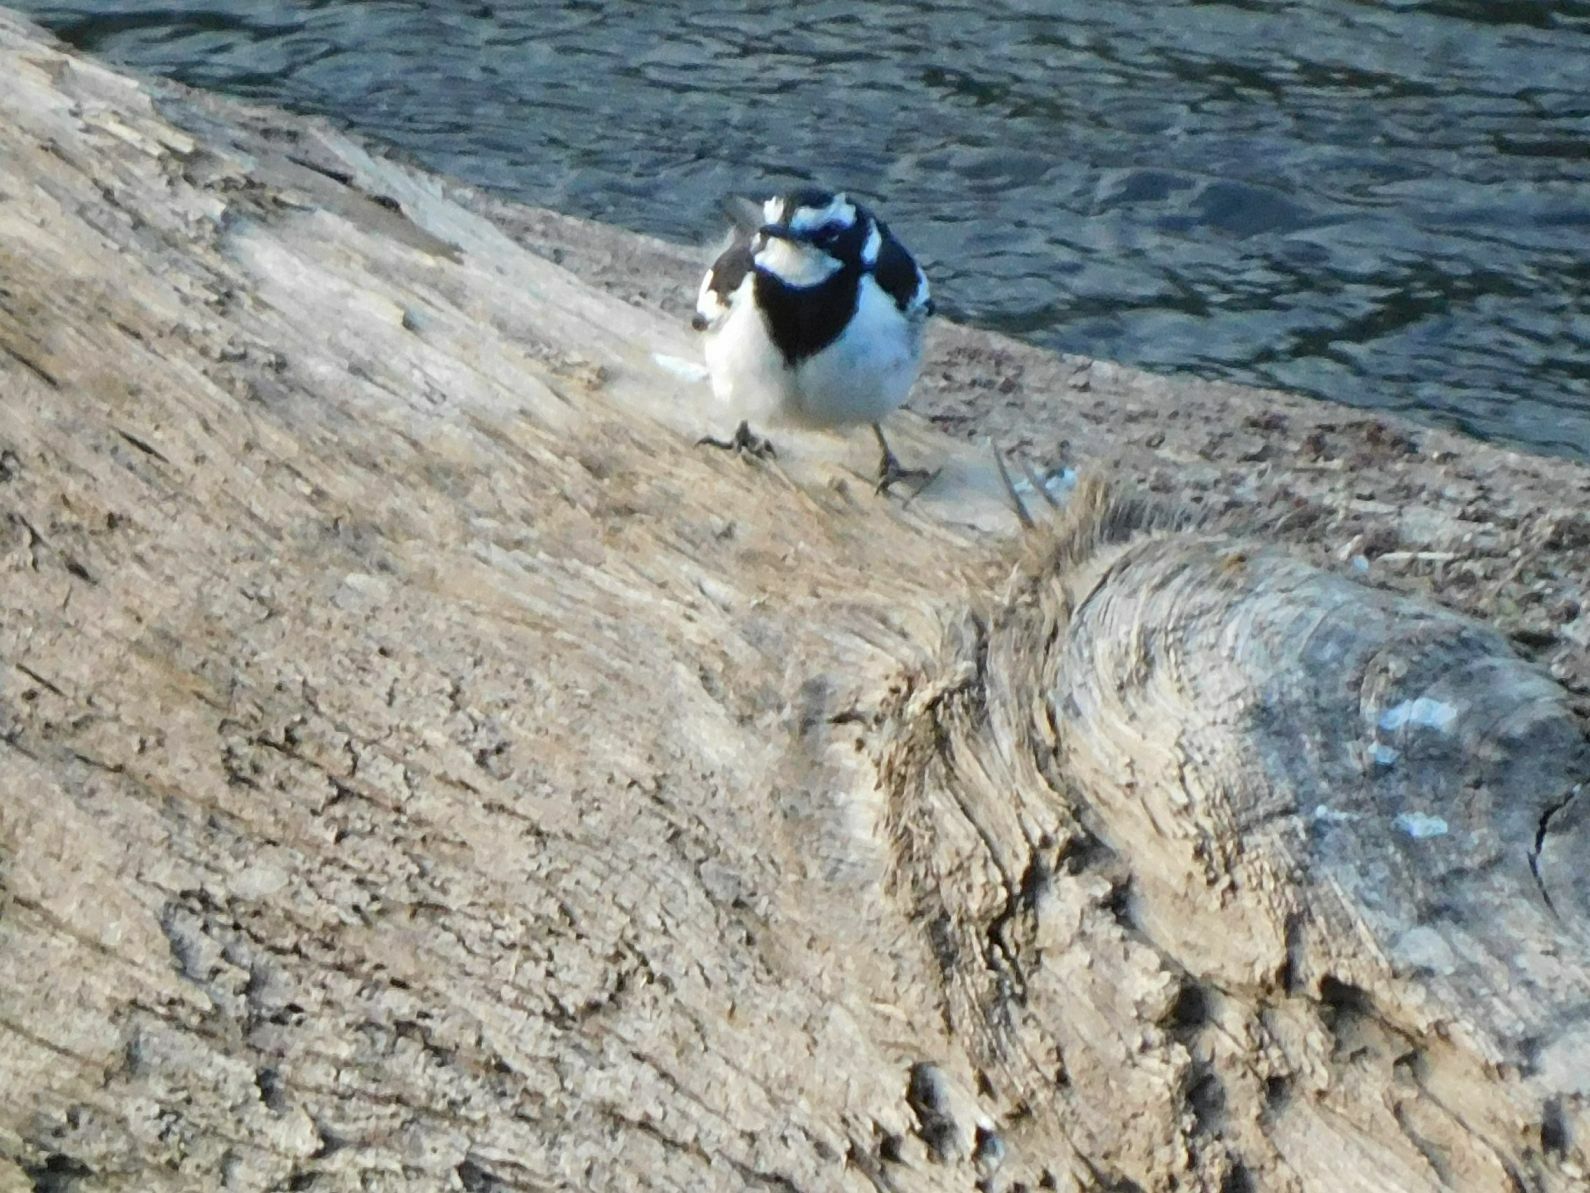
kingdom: Animalia
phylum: Chordata
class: Aves
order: Passeriformes
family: Motacillidae
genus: Motacilla
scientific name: Motacilla aguimp
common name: African pied wagtail
